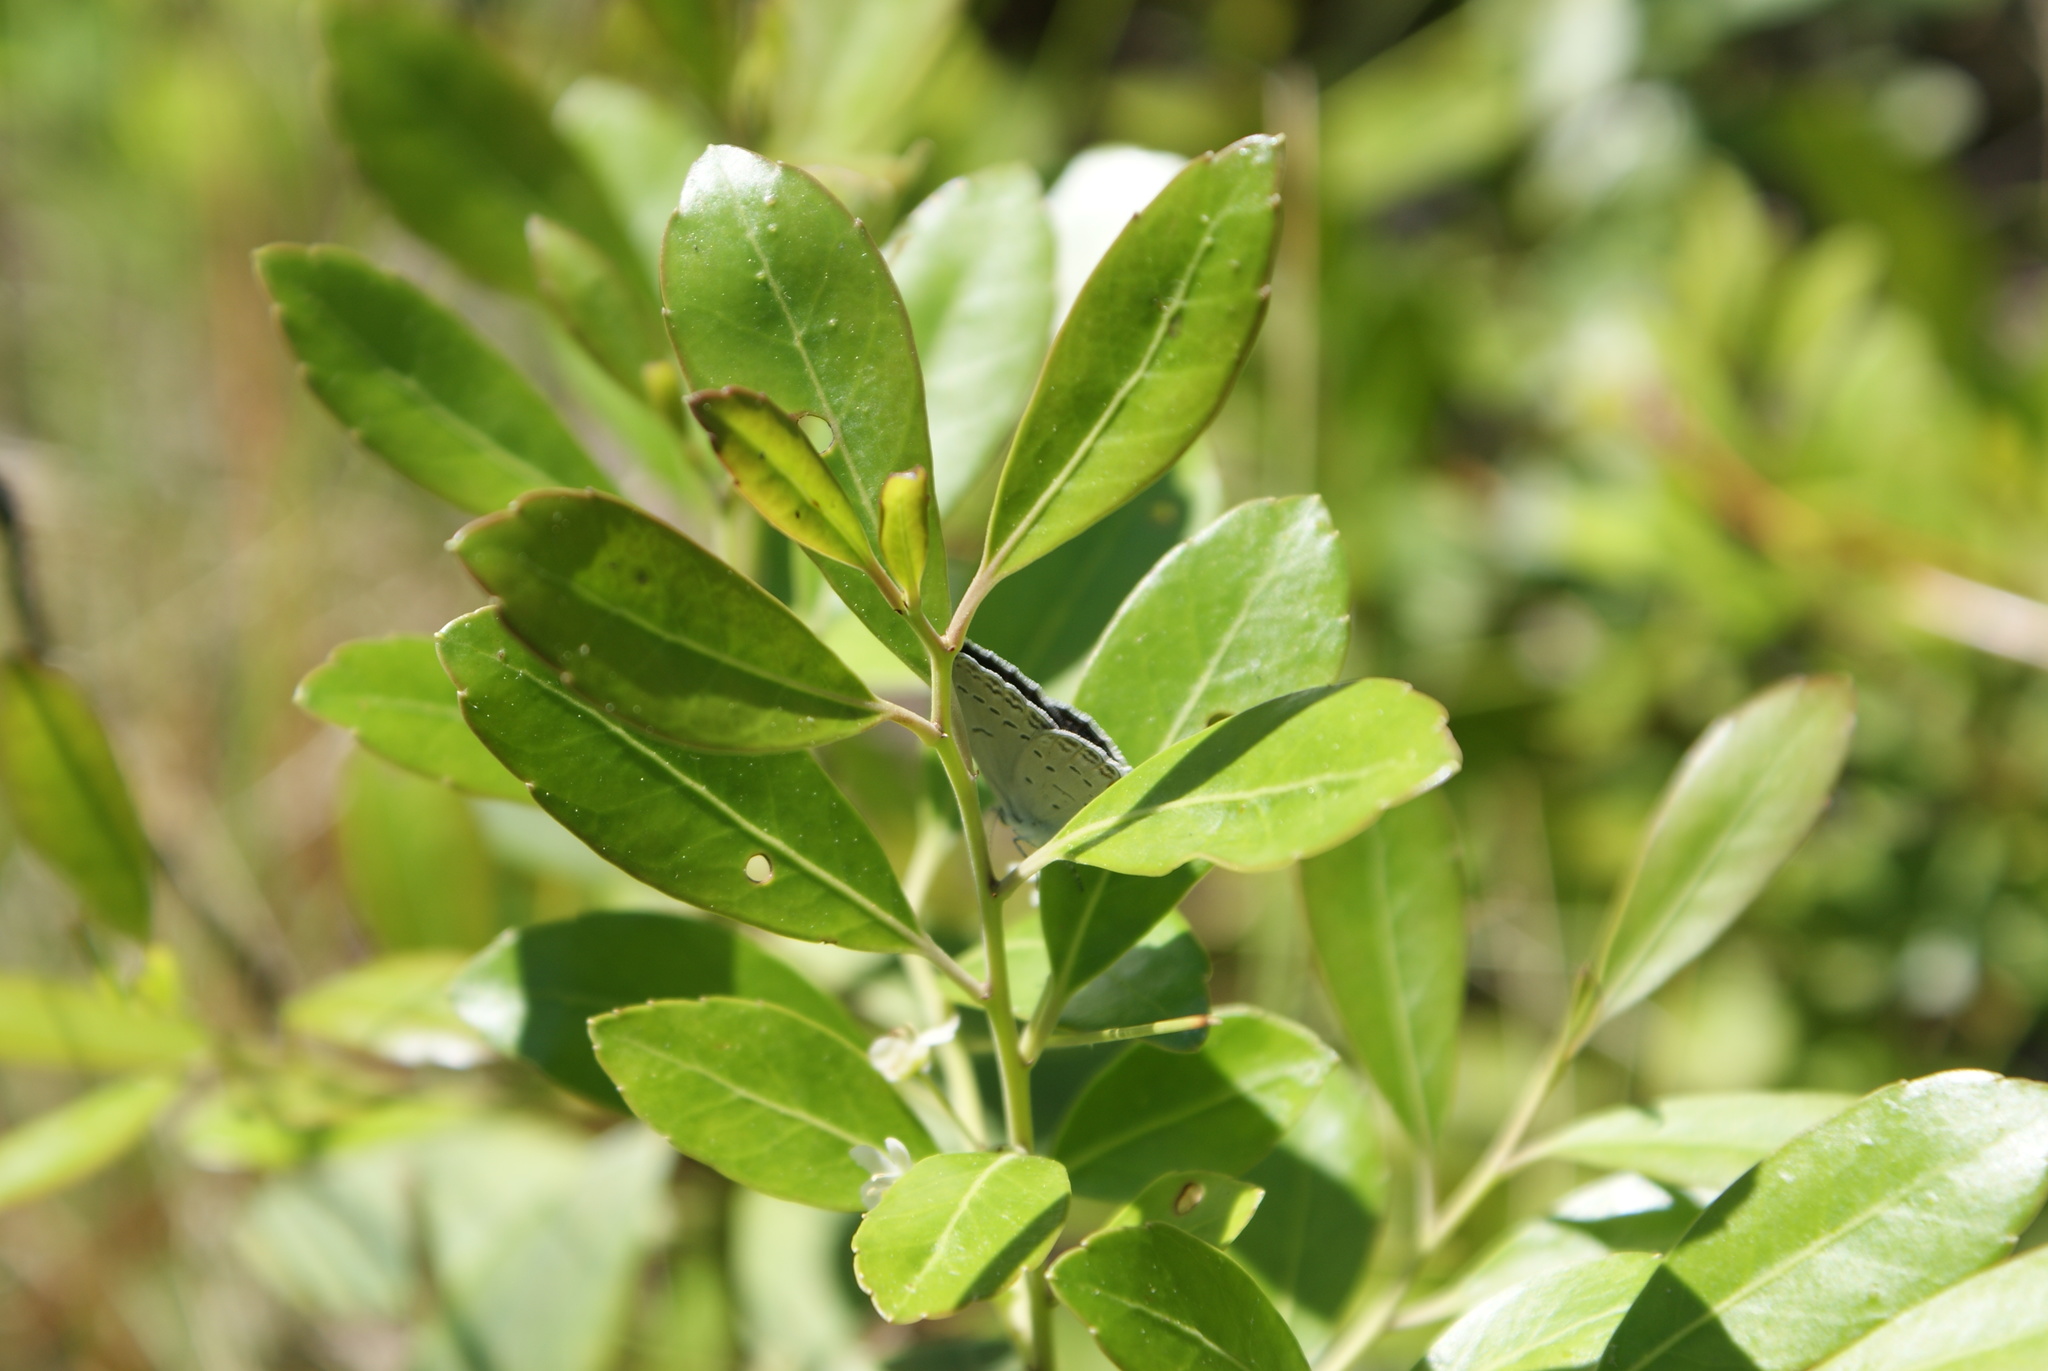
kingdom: Plantae
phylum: Tracheophyta
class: Magnoliopsida
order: Aquifoliales
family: Aquifoliaceae
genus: Ilex
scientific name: Ilex glabra
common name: Bitter gallberry
